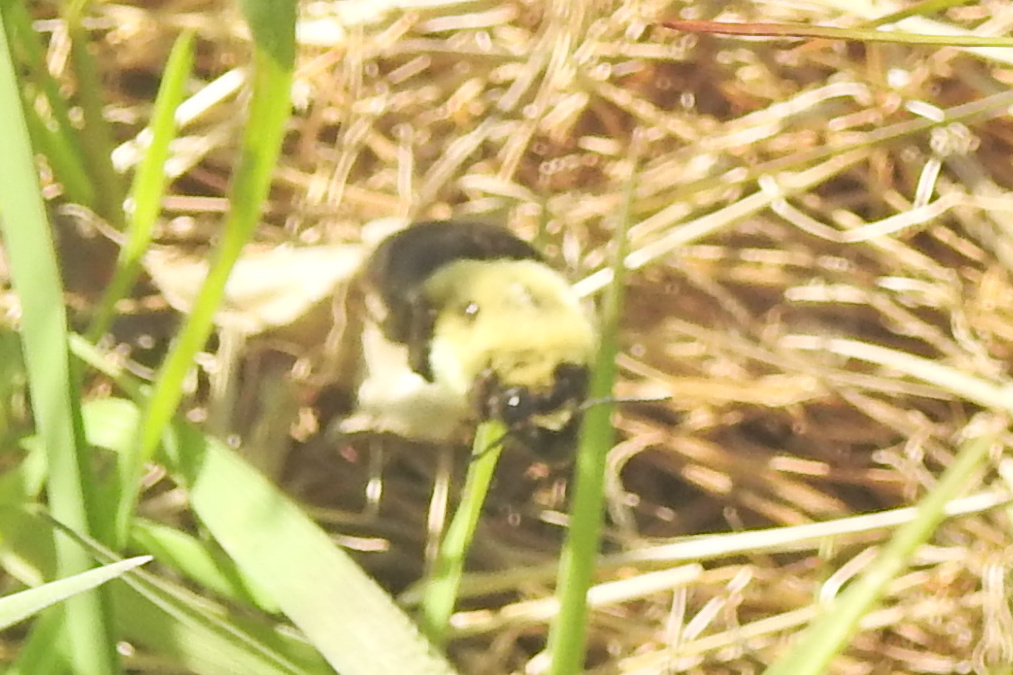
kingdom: Animalia
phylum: Arthropoda
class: Insecta
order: Hymenoptera
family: Apidae
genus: Bombus
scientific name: Bombus impatiens
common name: Common eastern bumble bee
